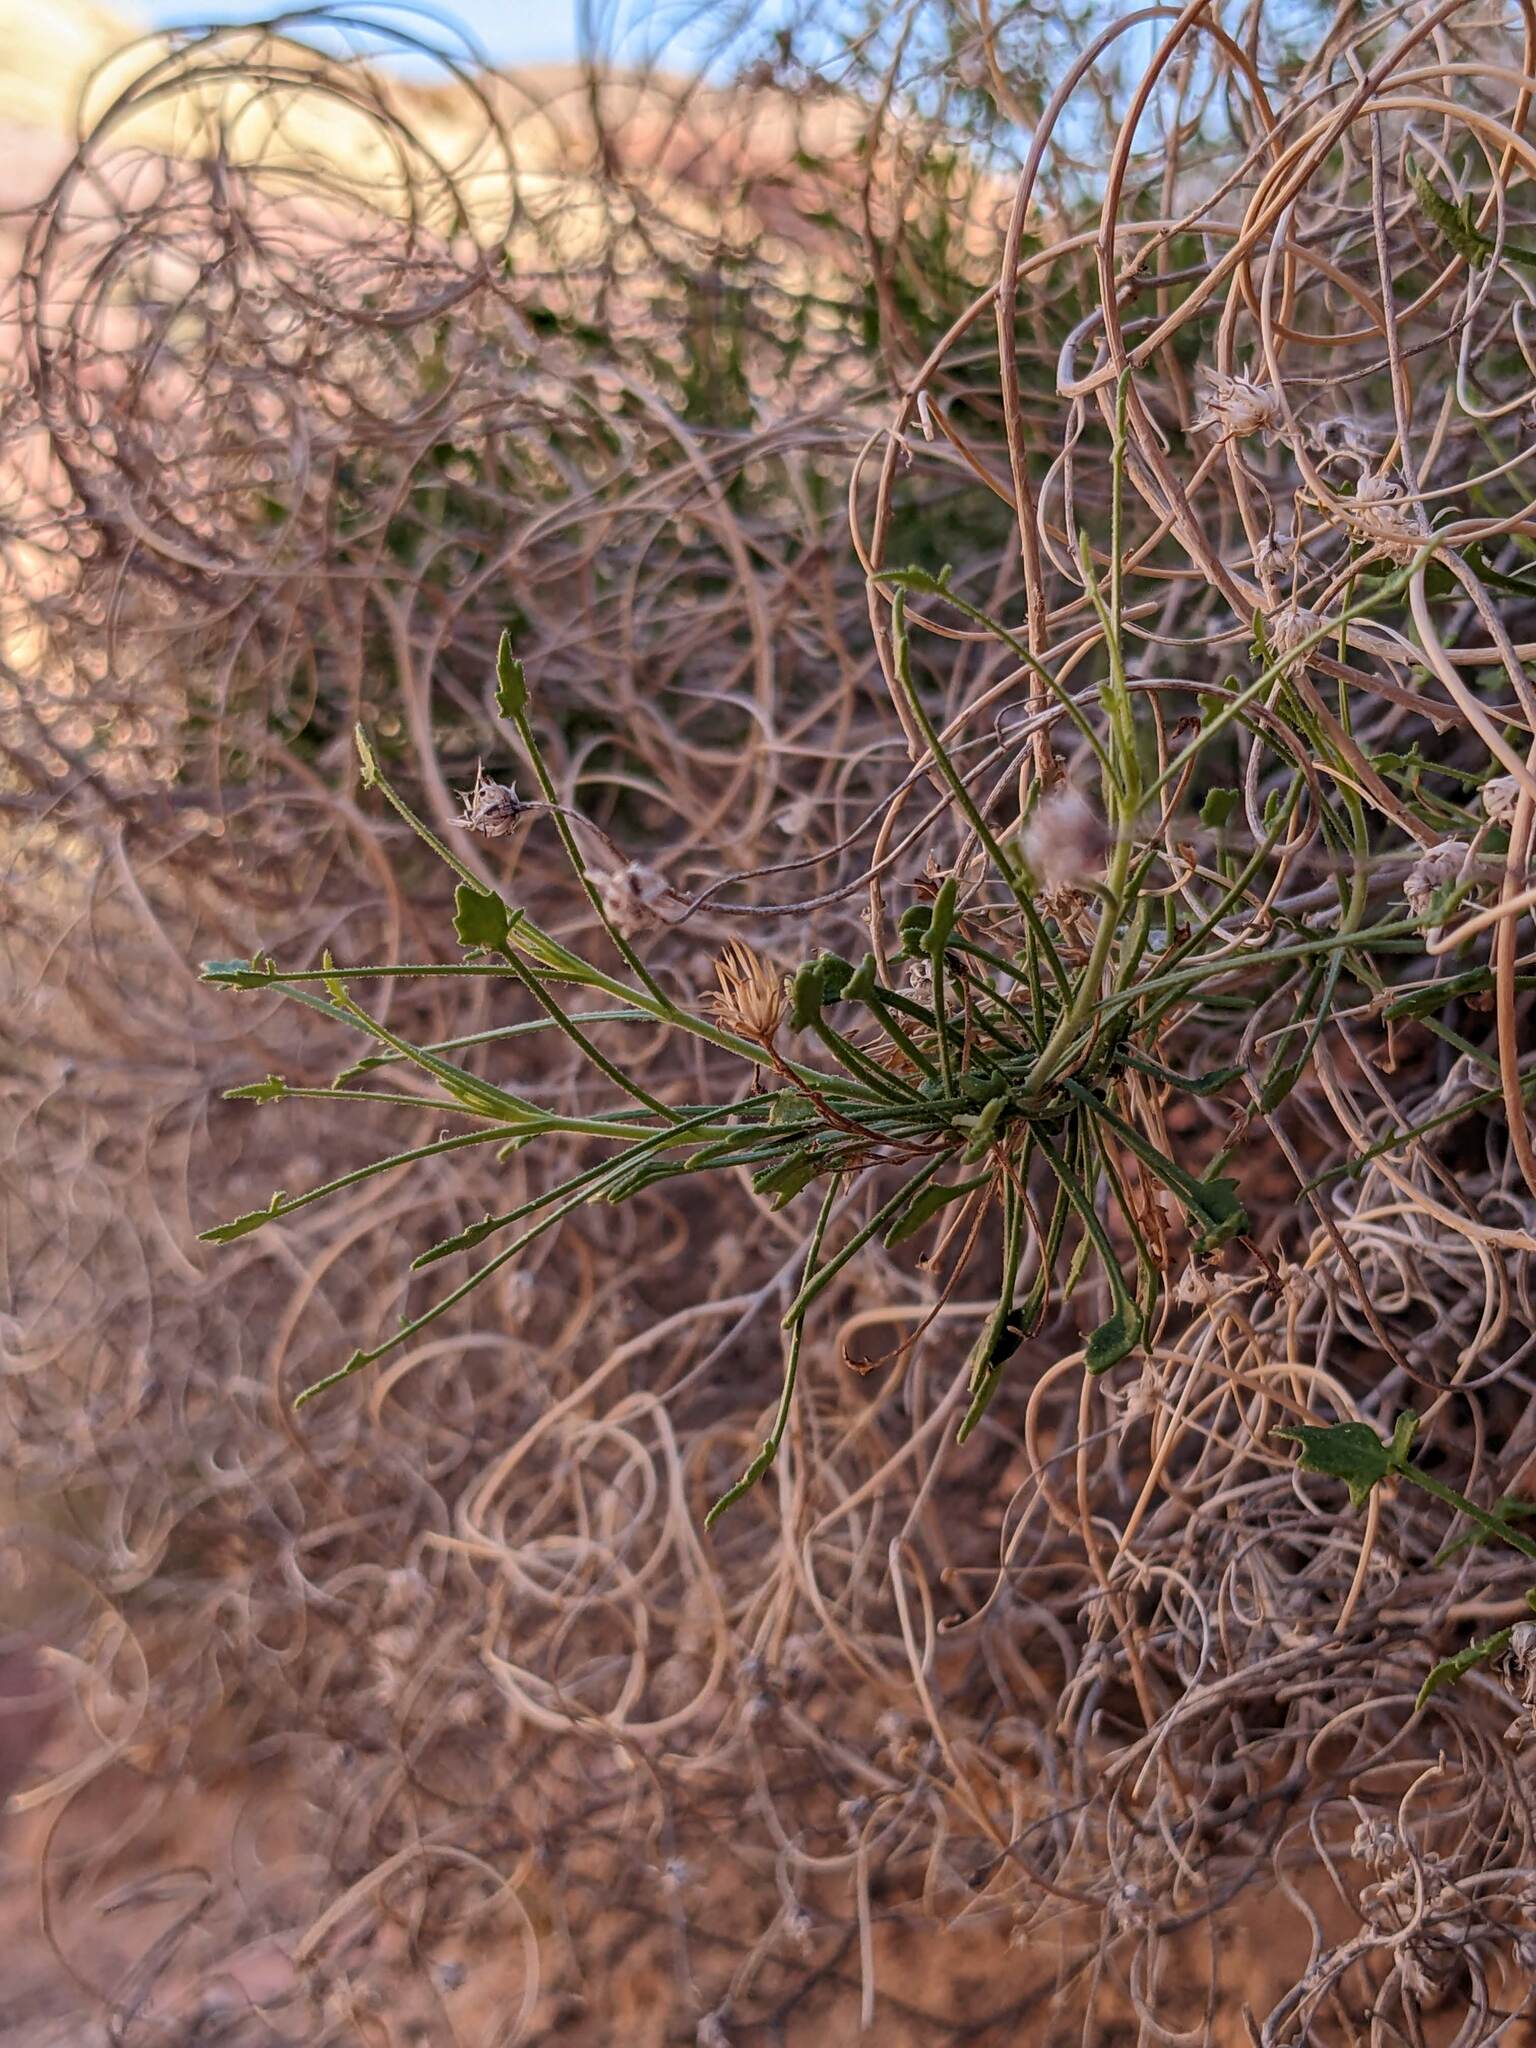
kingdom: Plantae
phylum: Tracheophyta
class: Magnoliopsida
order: Asterales
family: Asteraceae
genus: Pleurocoronis
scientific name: Pleurocoronis pluriseta
